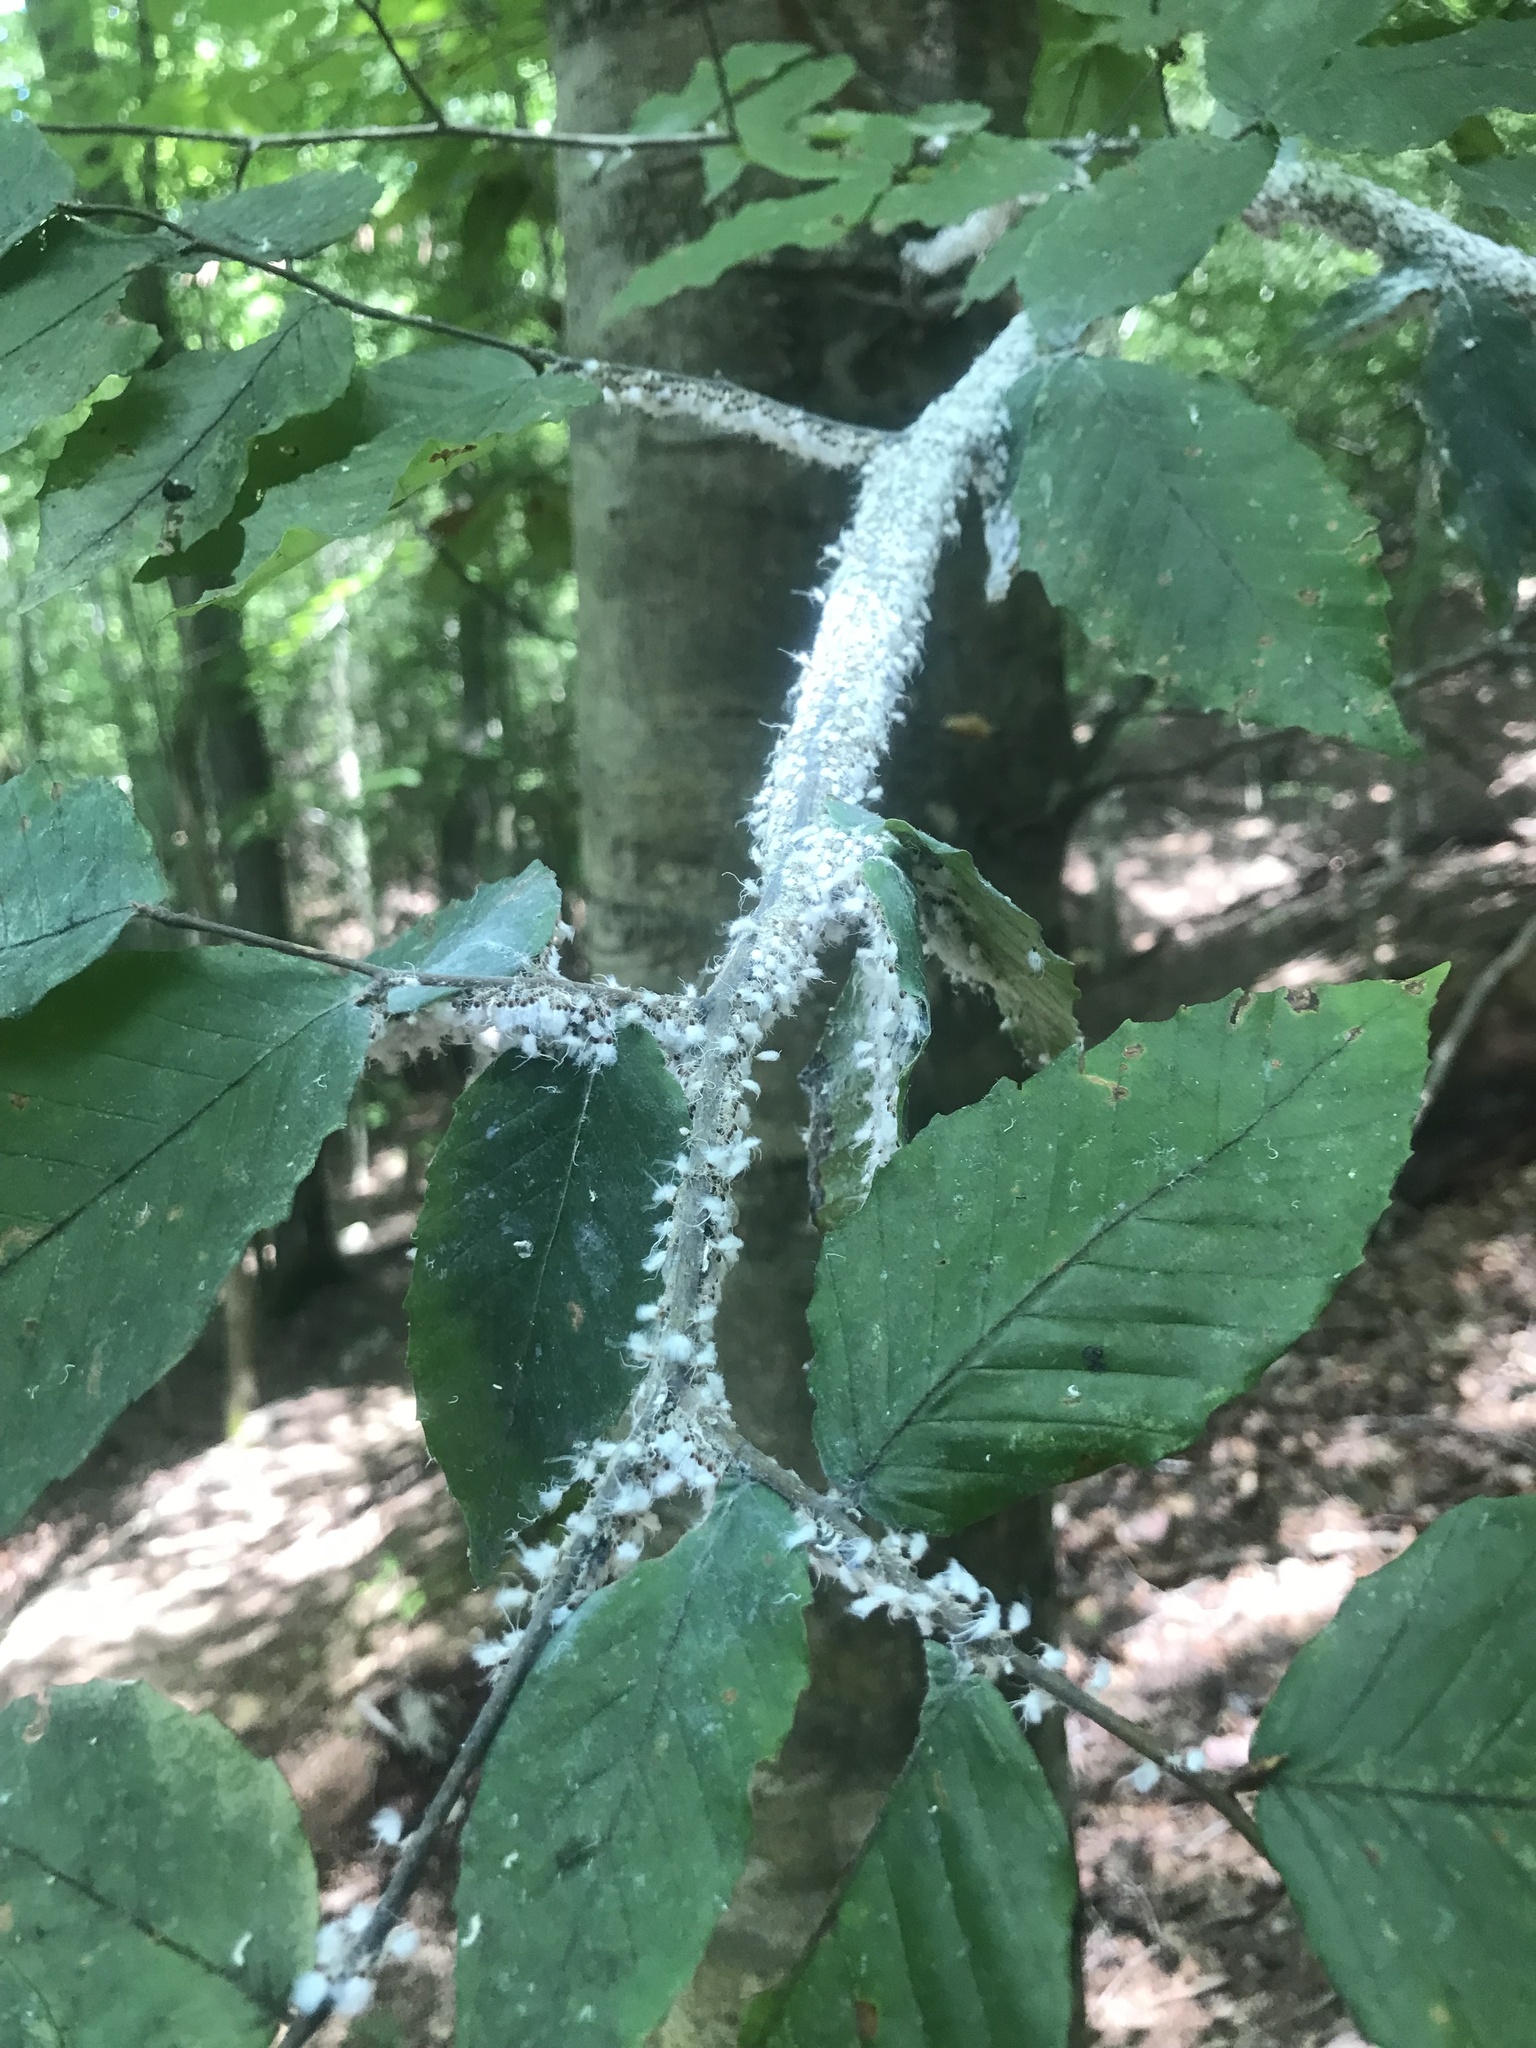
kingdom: Animalia
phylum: Arthropoda
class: Insecta
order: Hemiptera
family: Aphididae
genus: Grylloprociphilus
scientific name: Grylloprociphilus imbricator
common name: Beech blight aphid
